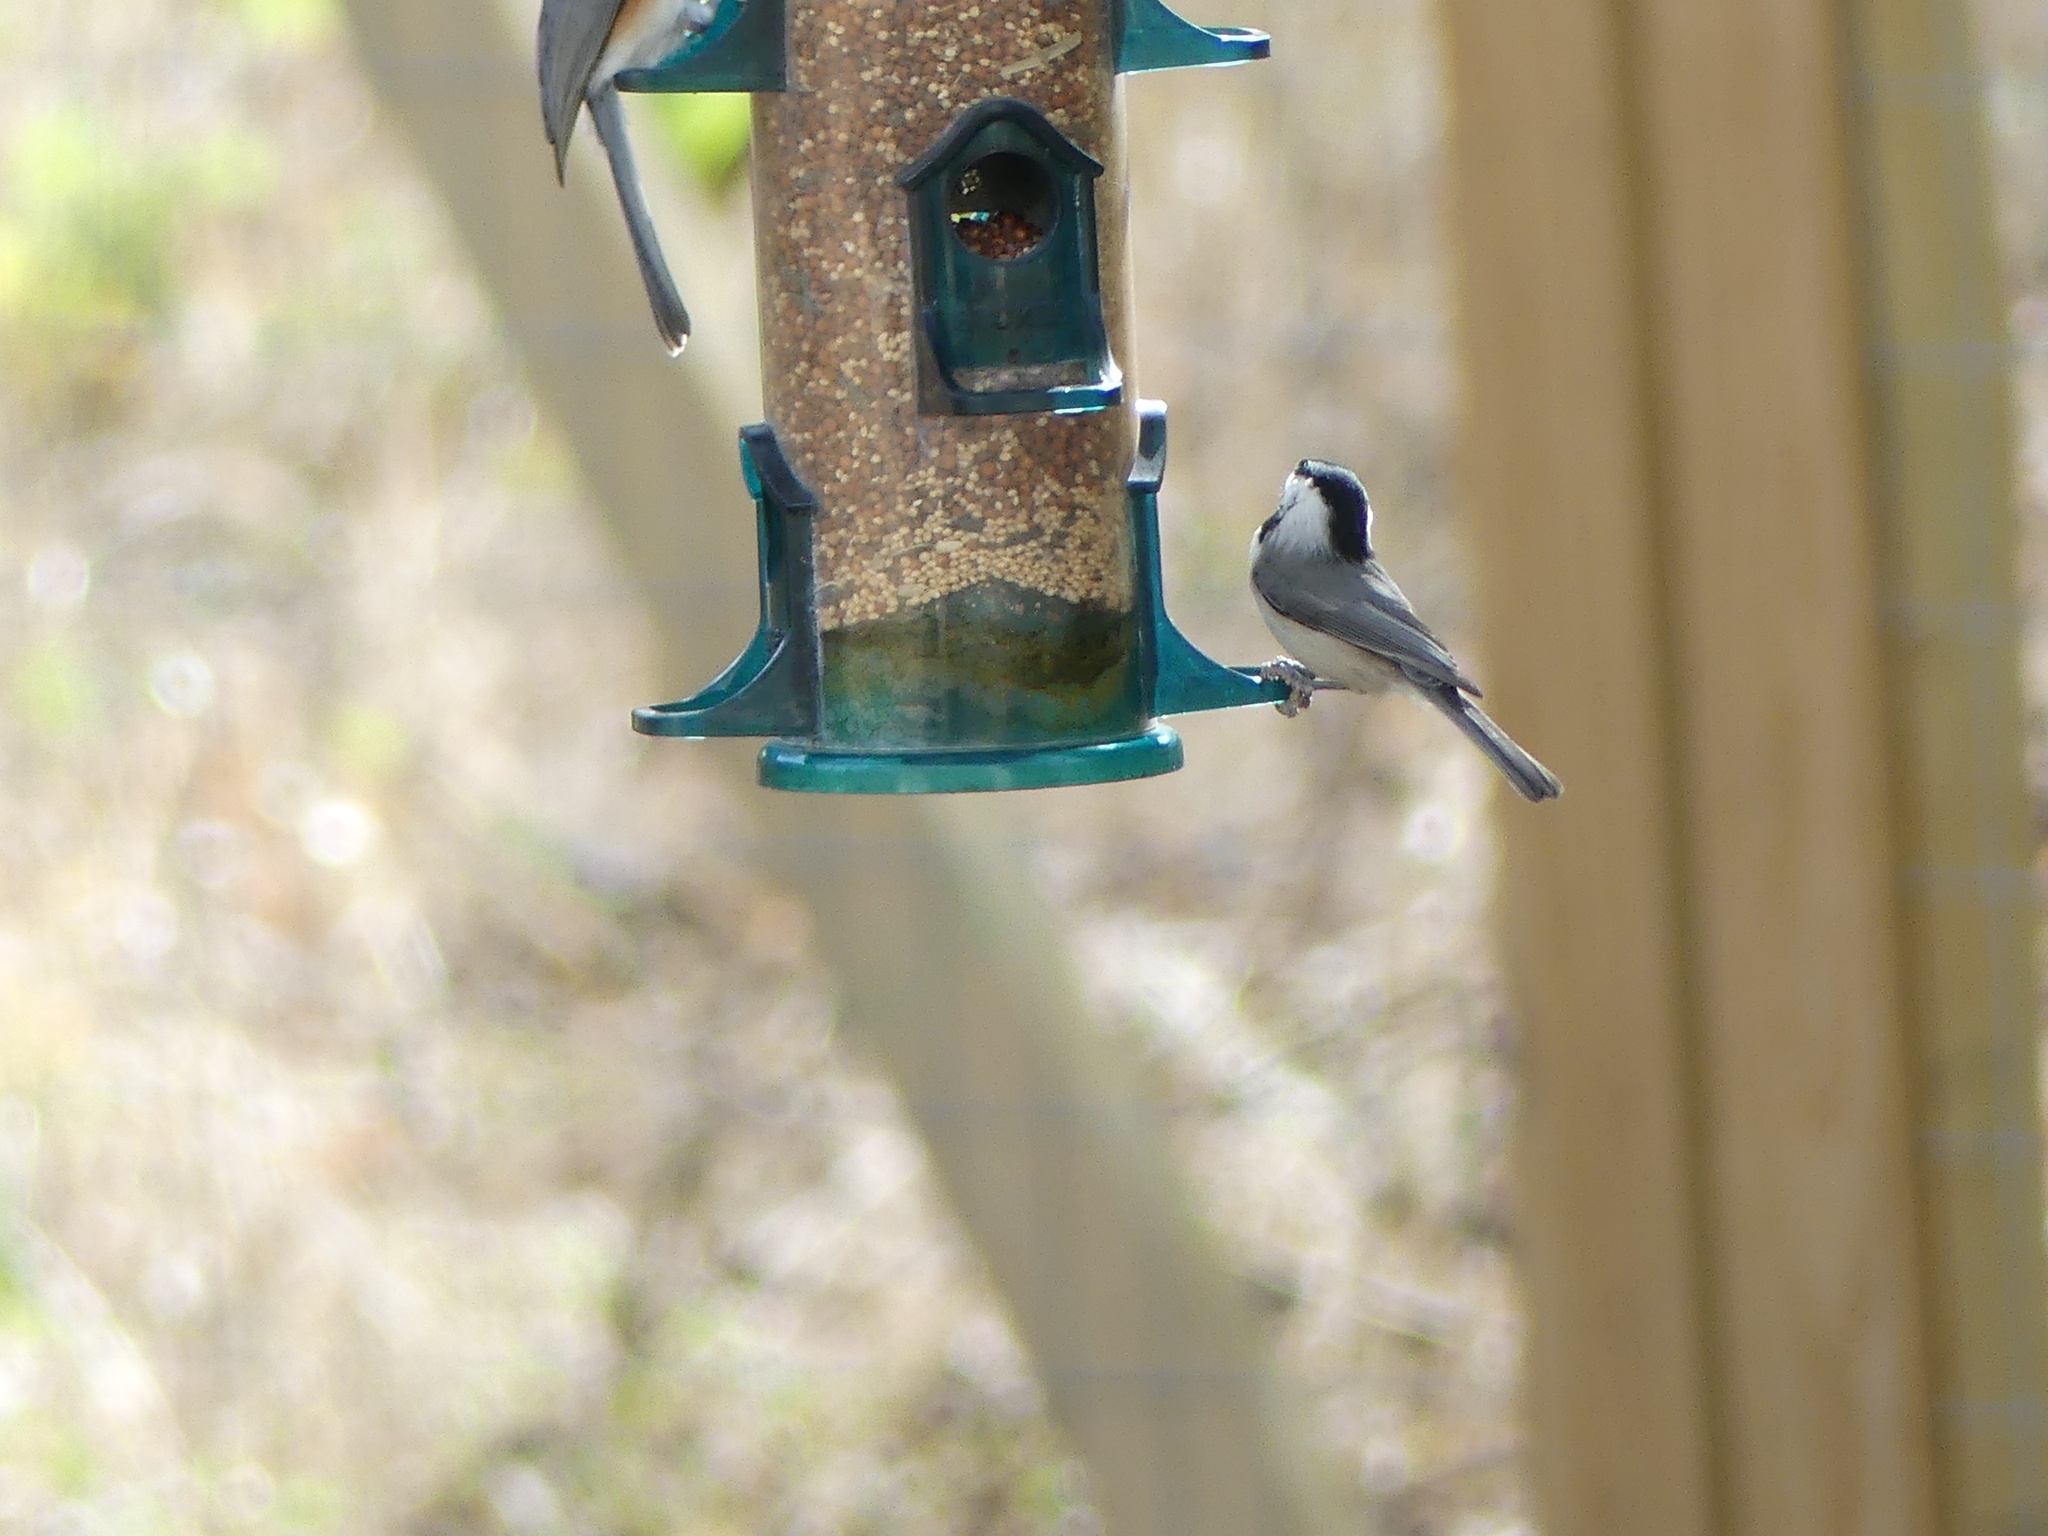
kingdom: Animalia
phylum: Chordata
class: Aves
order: Passeriformes
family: Paridae
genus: Poecile
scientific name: Poecile carolinensis
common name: Carolina chickadee
